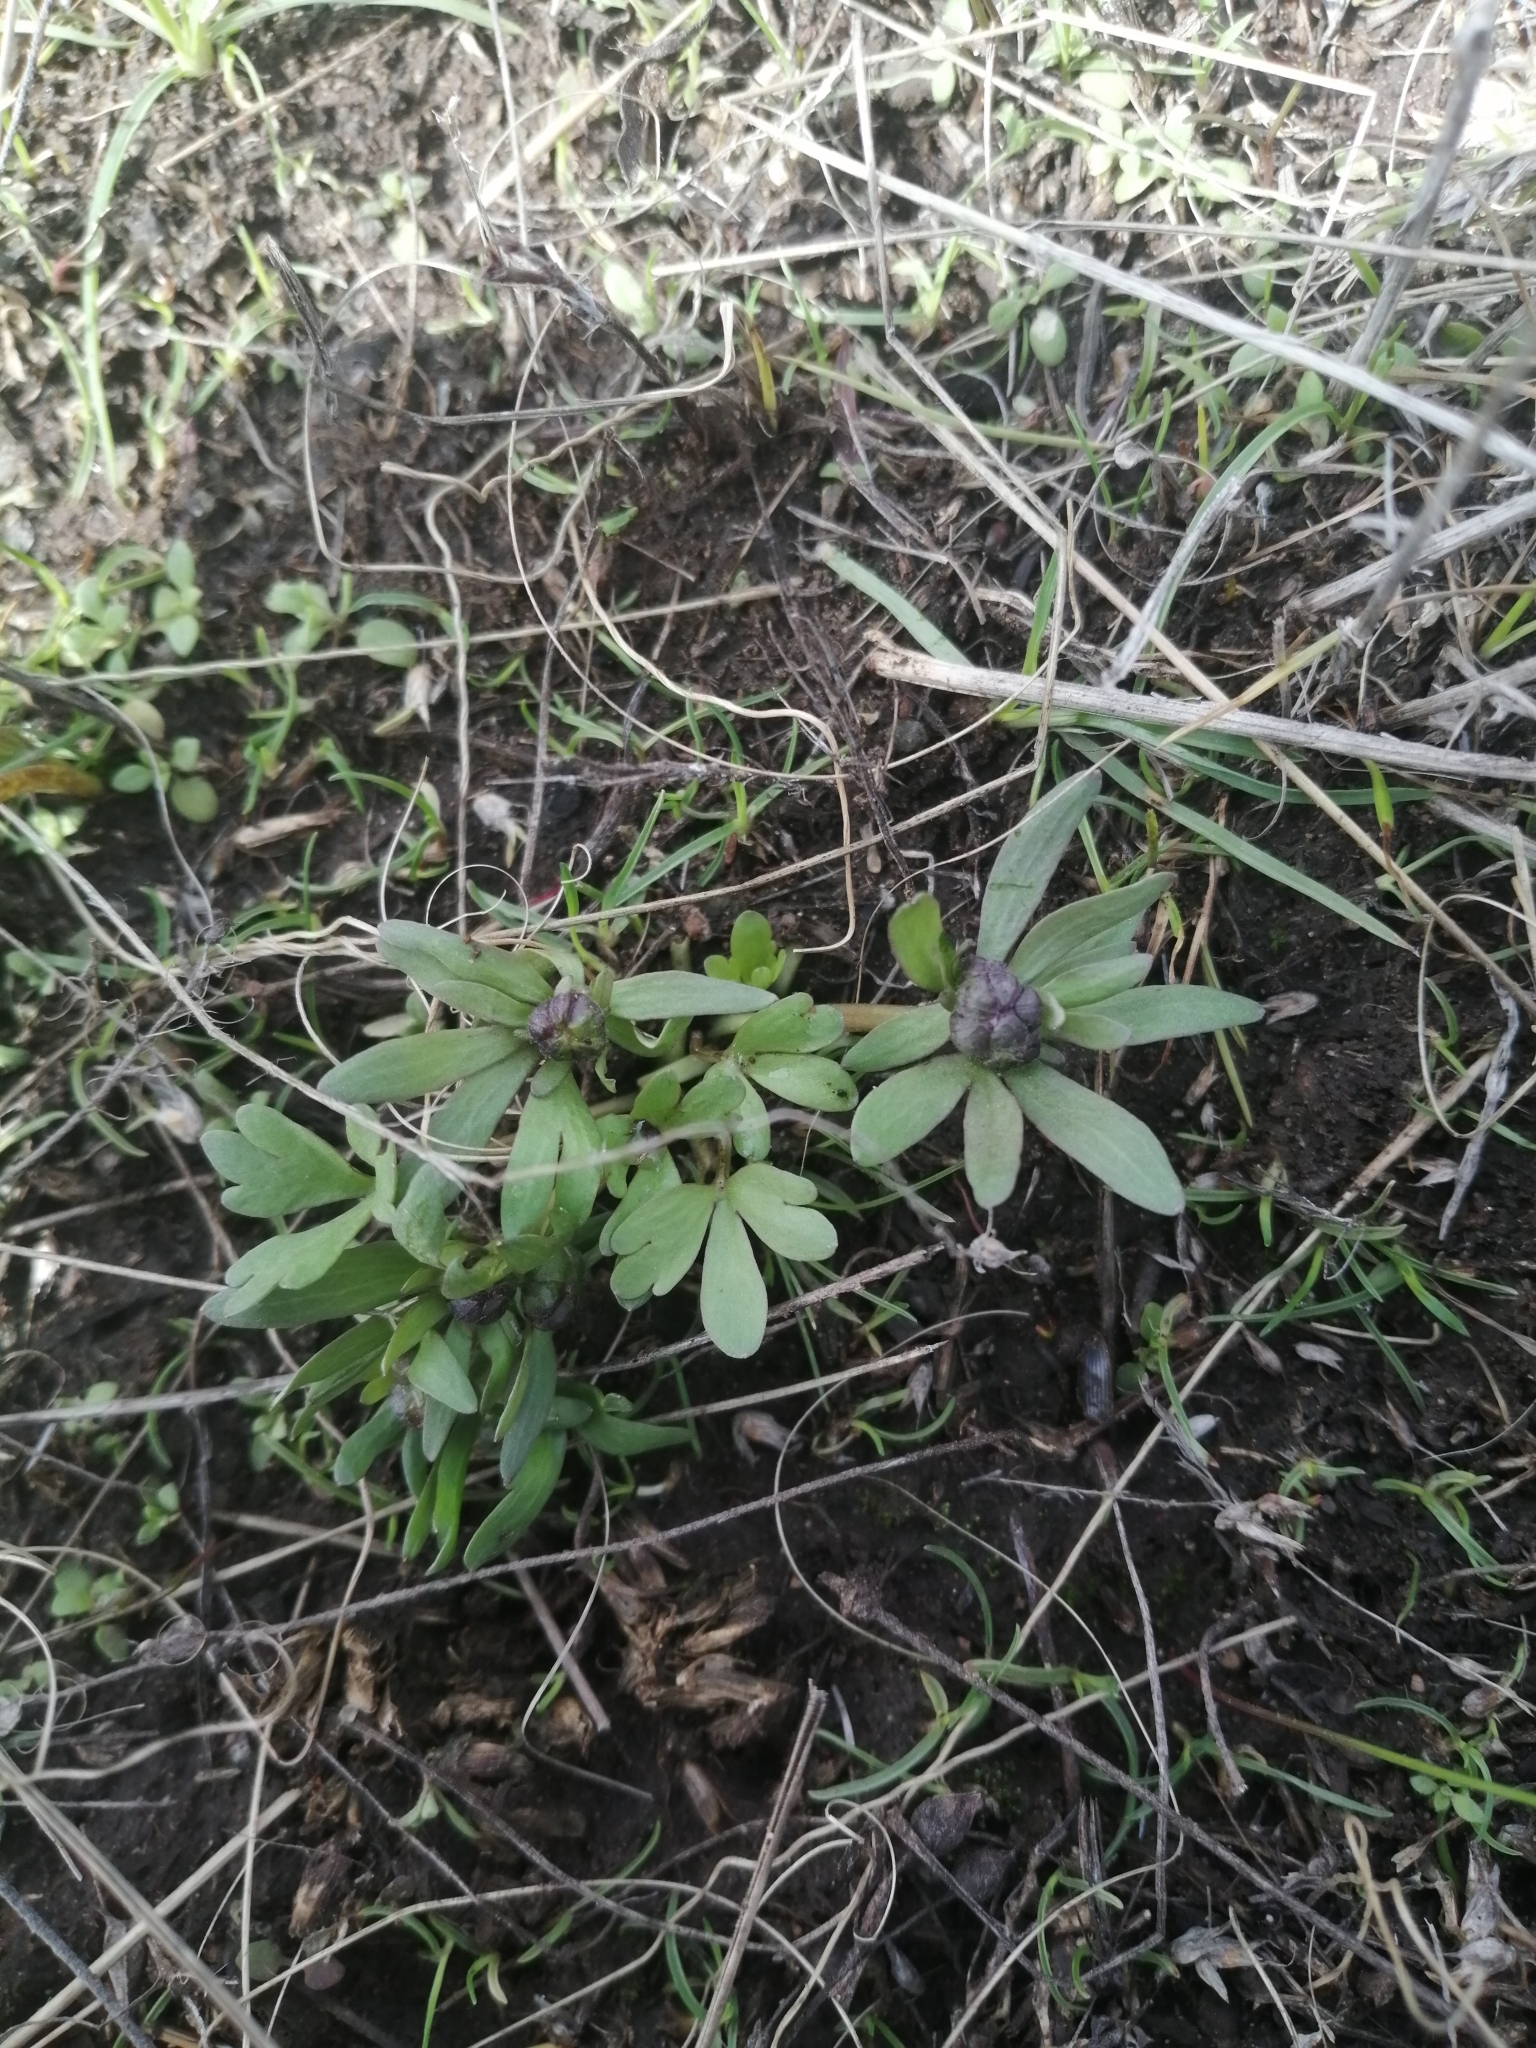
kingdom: Plantae
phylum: Tracheophyta
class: Magnoliopsida
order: Ranunculales
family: Ranunculaceae
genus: Ranunculus
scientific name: Ranunculus polyrhizos
